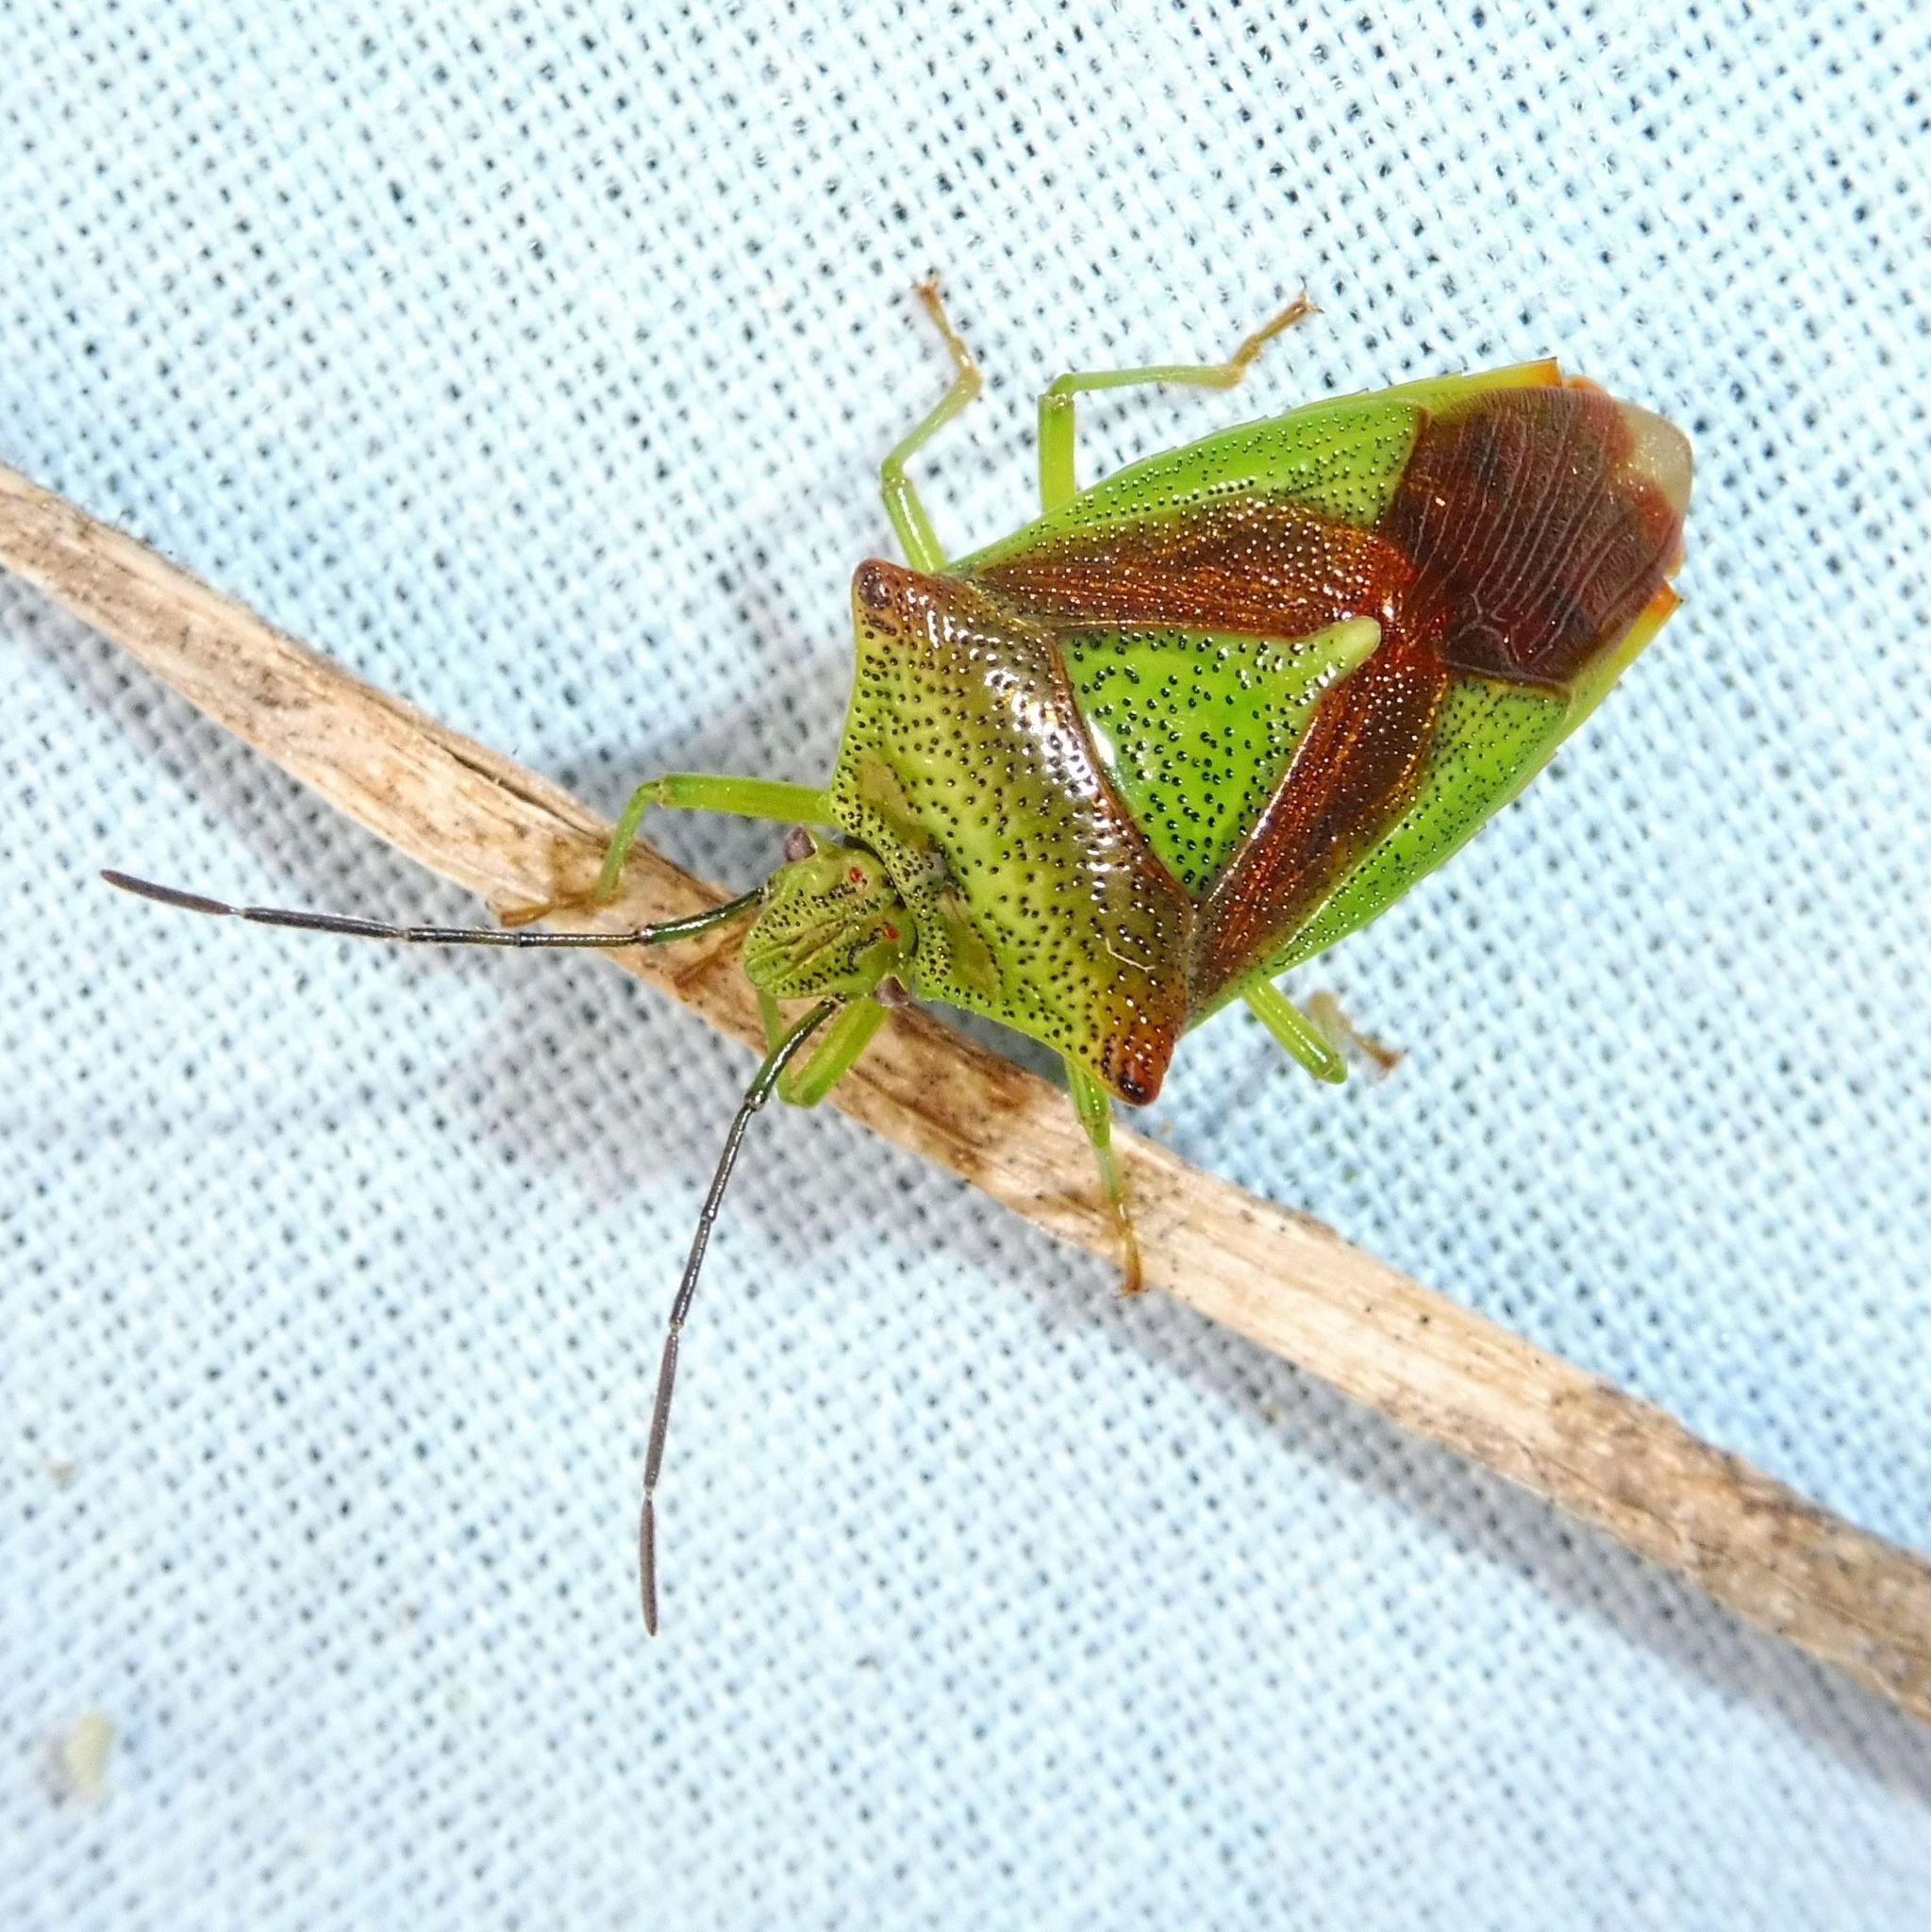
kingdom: Animalia
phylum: Arthropoda
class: Insecta
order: Hemiptera
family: Acanthosomatidae
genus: Acanthosoma
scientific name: Acanthosoma haemorrhoidale
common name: Hawthorn shieldbug
